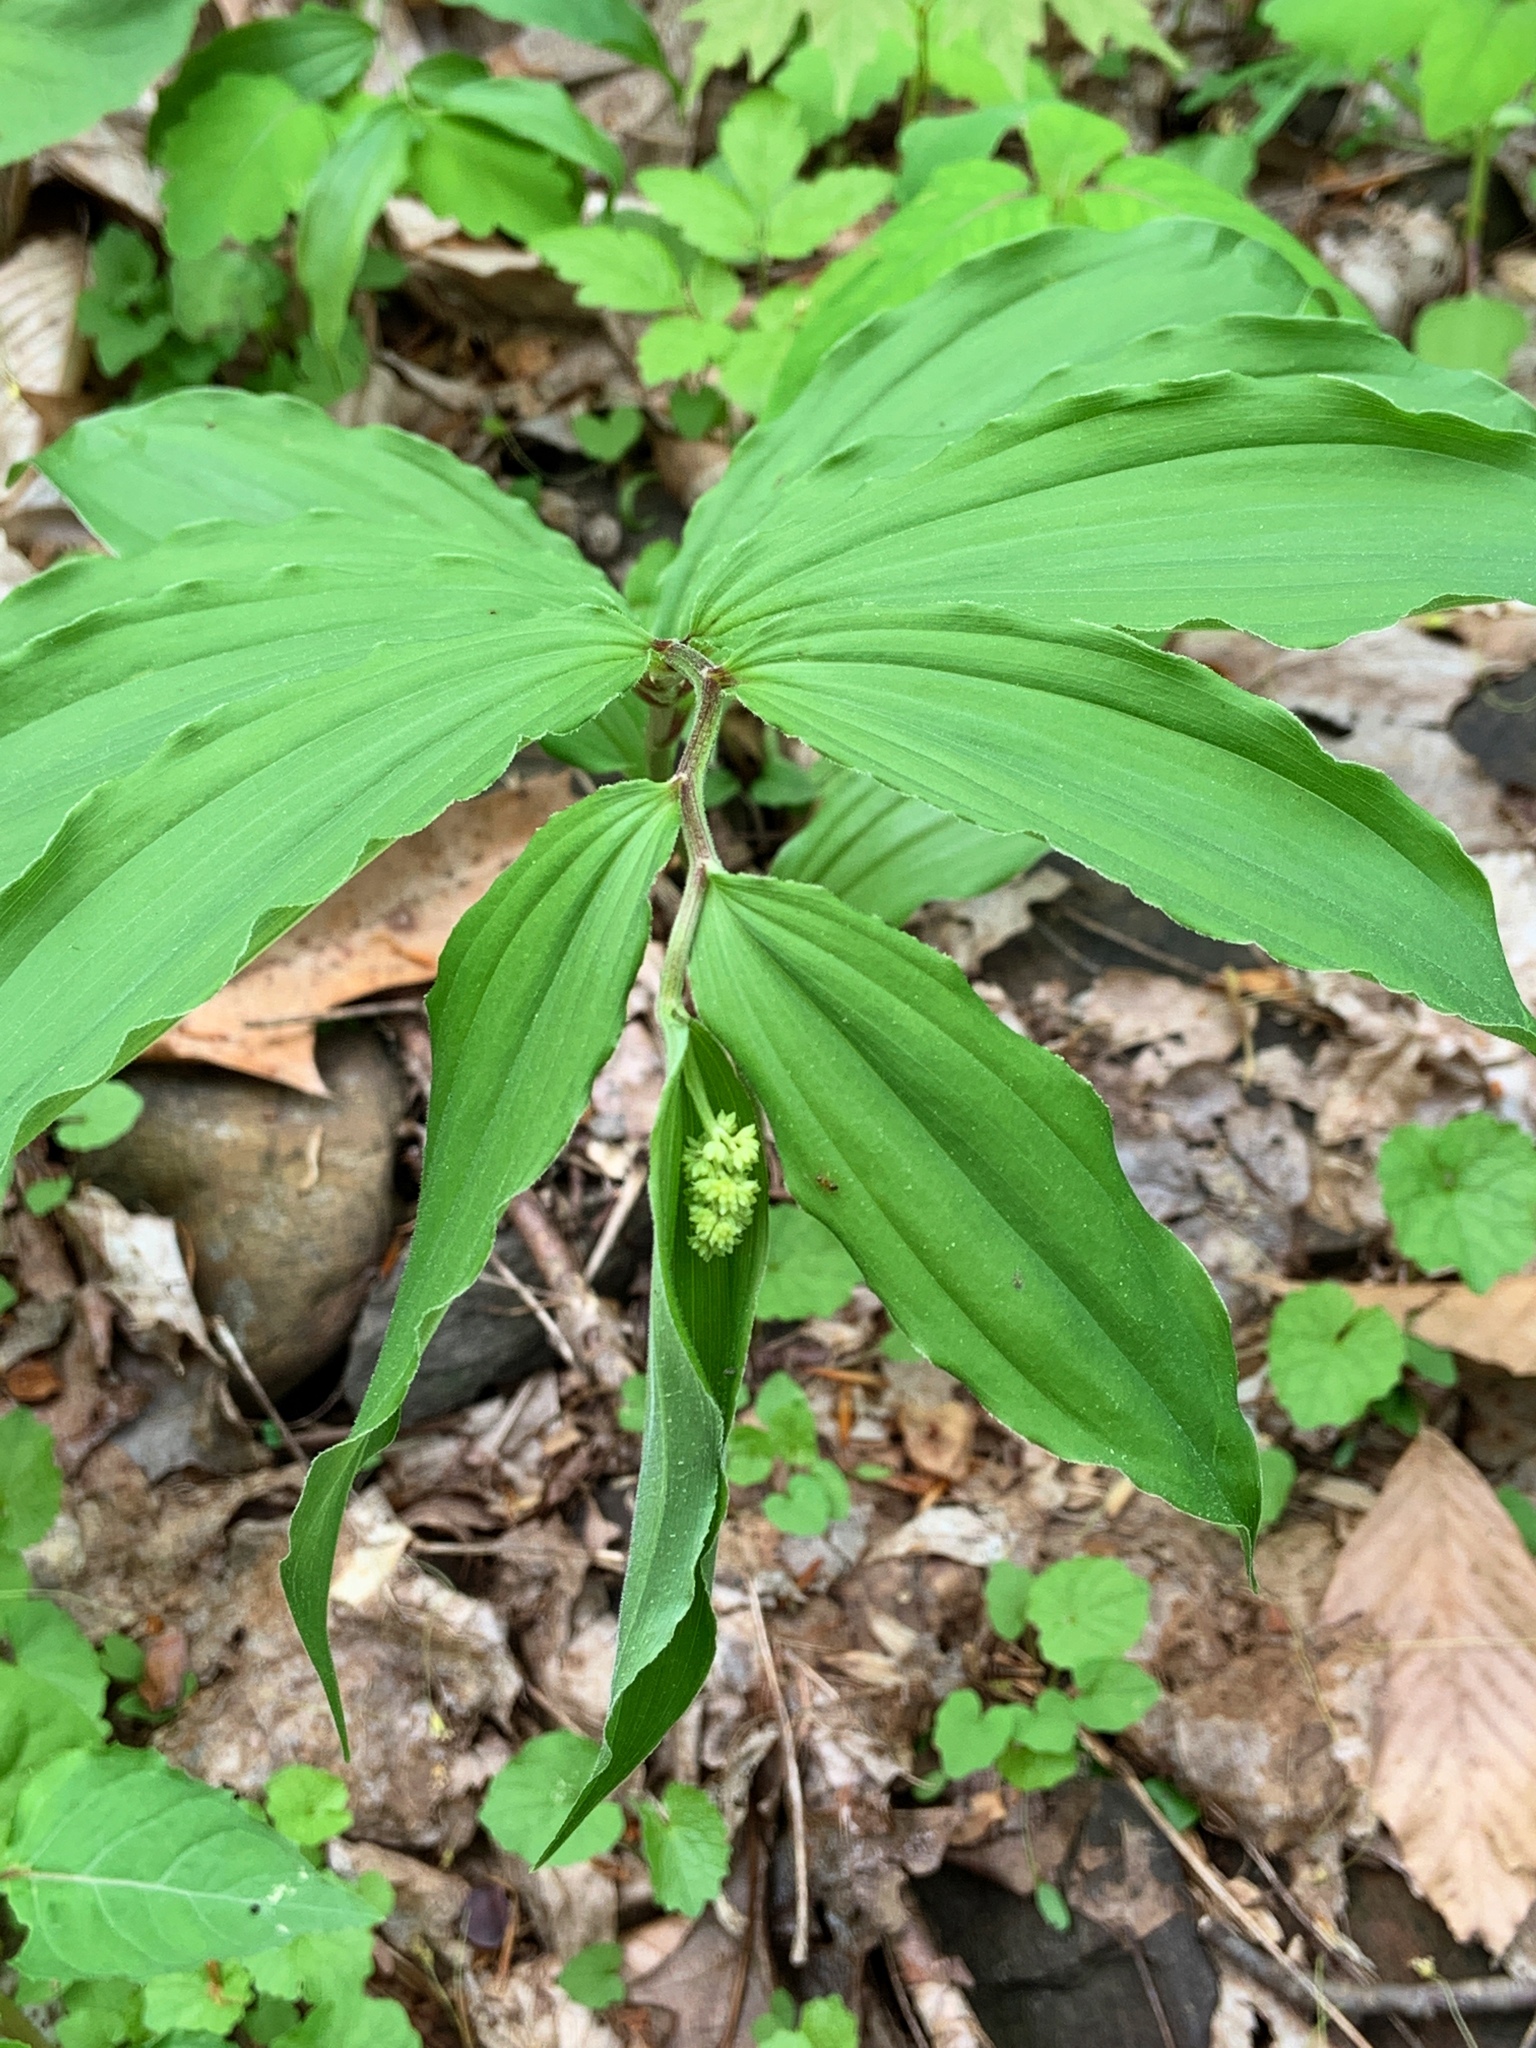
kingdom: Plantae
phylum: Tracheophyta
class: Liliopsida
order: Asparagales
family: Asparagaceae
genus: Maianthemum
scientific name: Maianthemum racemosum
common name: False spikenard
